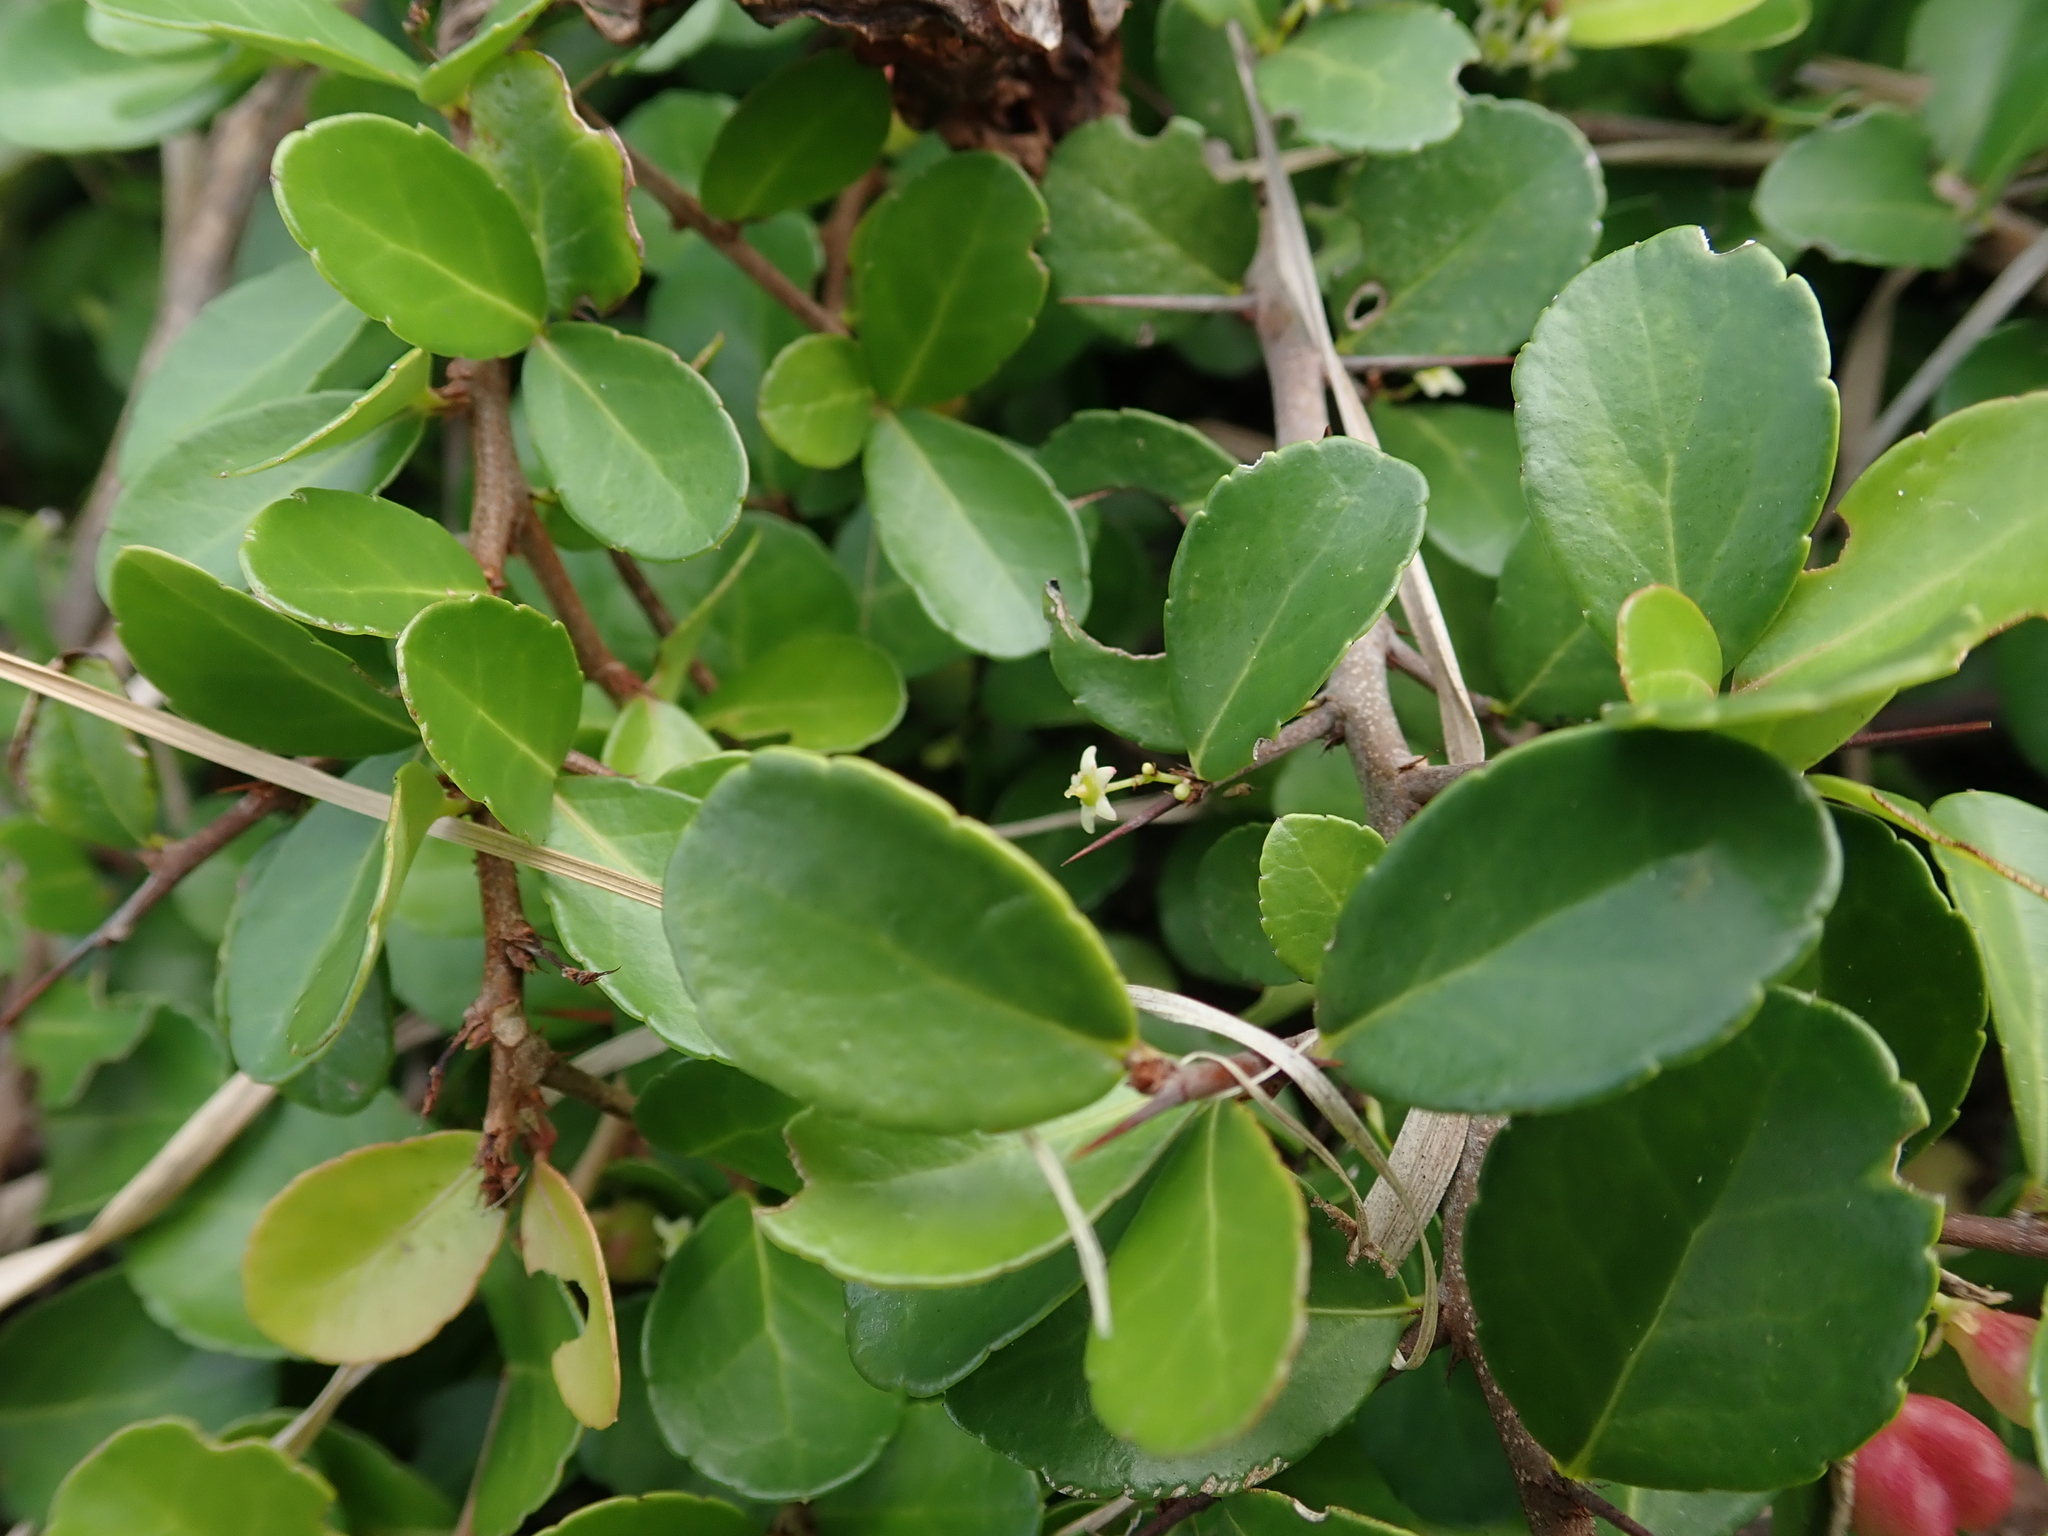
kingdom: Plantae
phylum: Tracheophyta
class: Magnoliopsida
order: Celastrales
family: Celastraceae
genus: Gymnosporia
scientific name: Gymnosporia diversifolia
